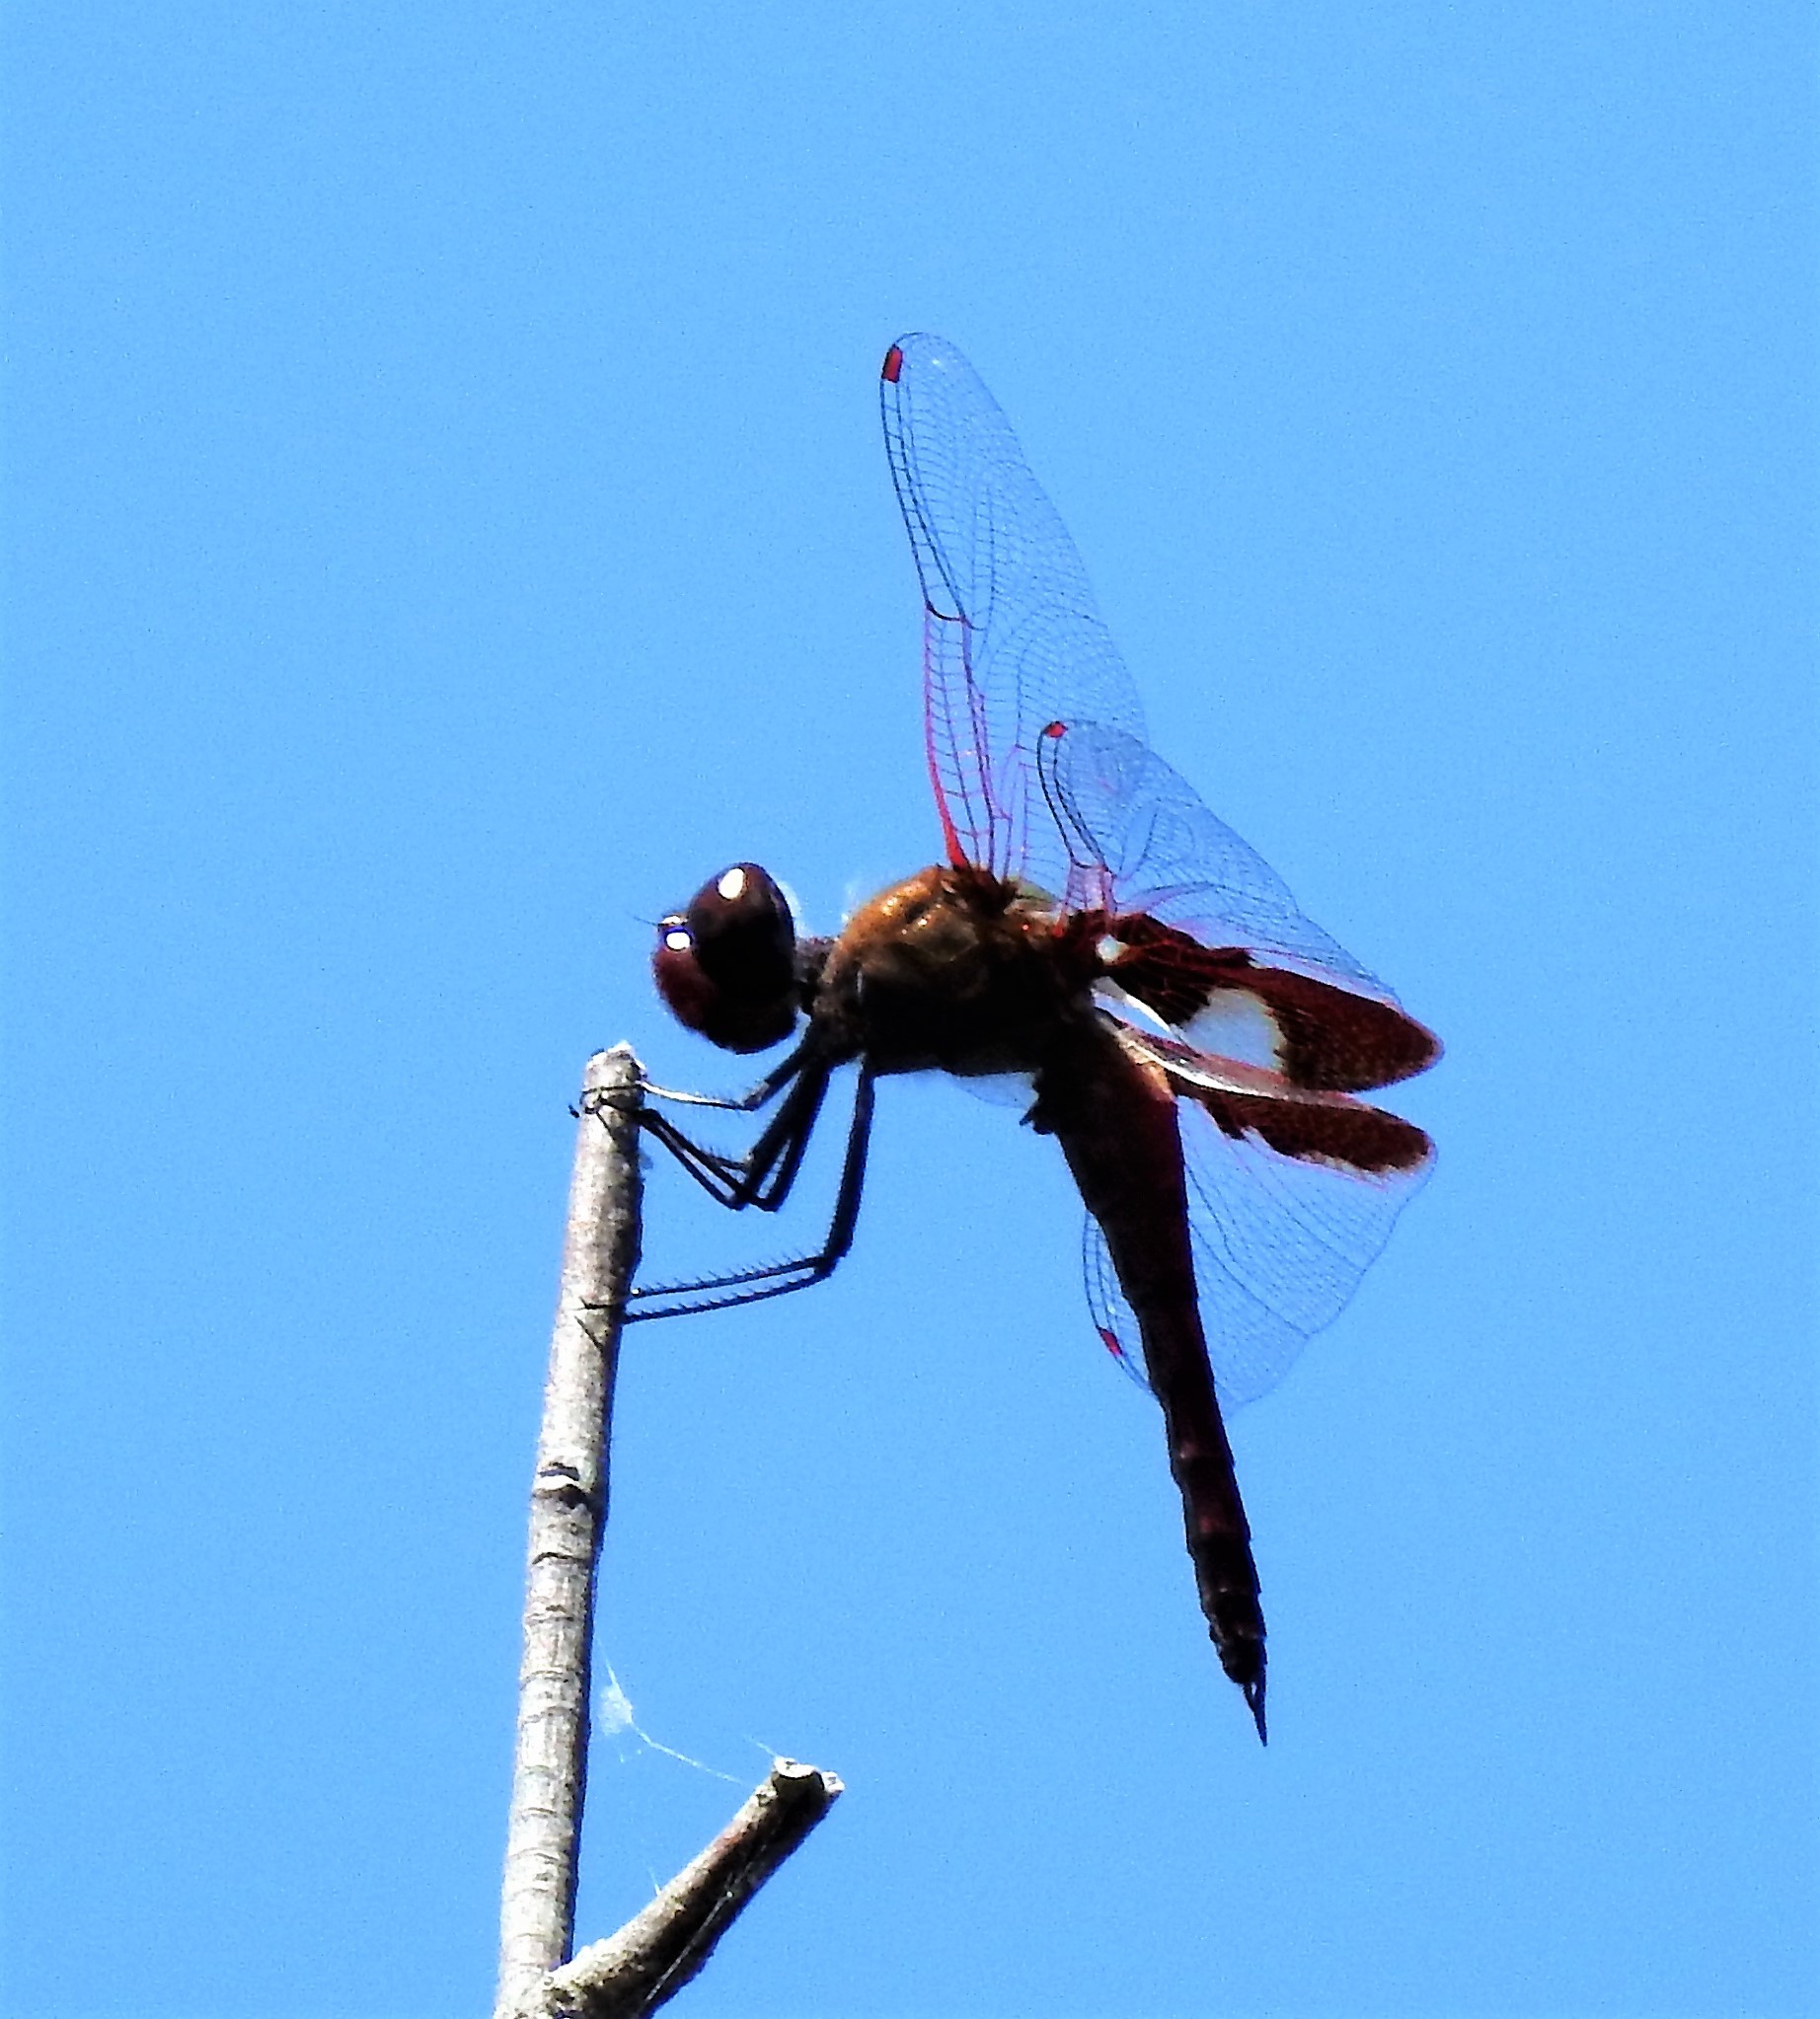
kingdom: Animalia
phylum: Arthropoda
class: Insecta
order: Odonata
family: Libellulidae
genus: Tramea
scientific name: Tramea onusta
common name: Red saddlebags
